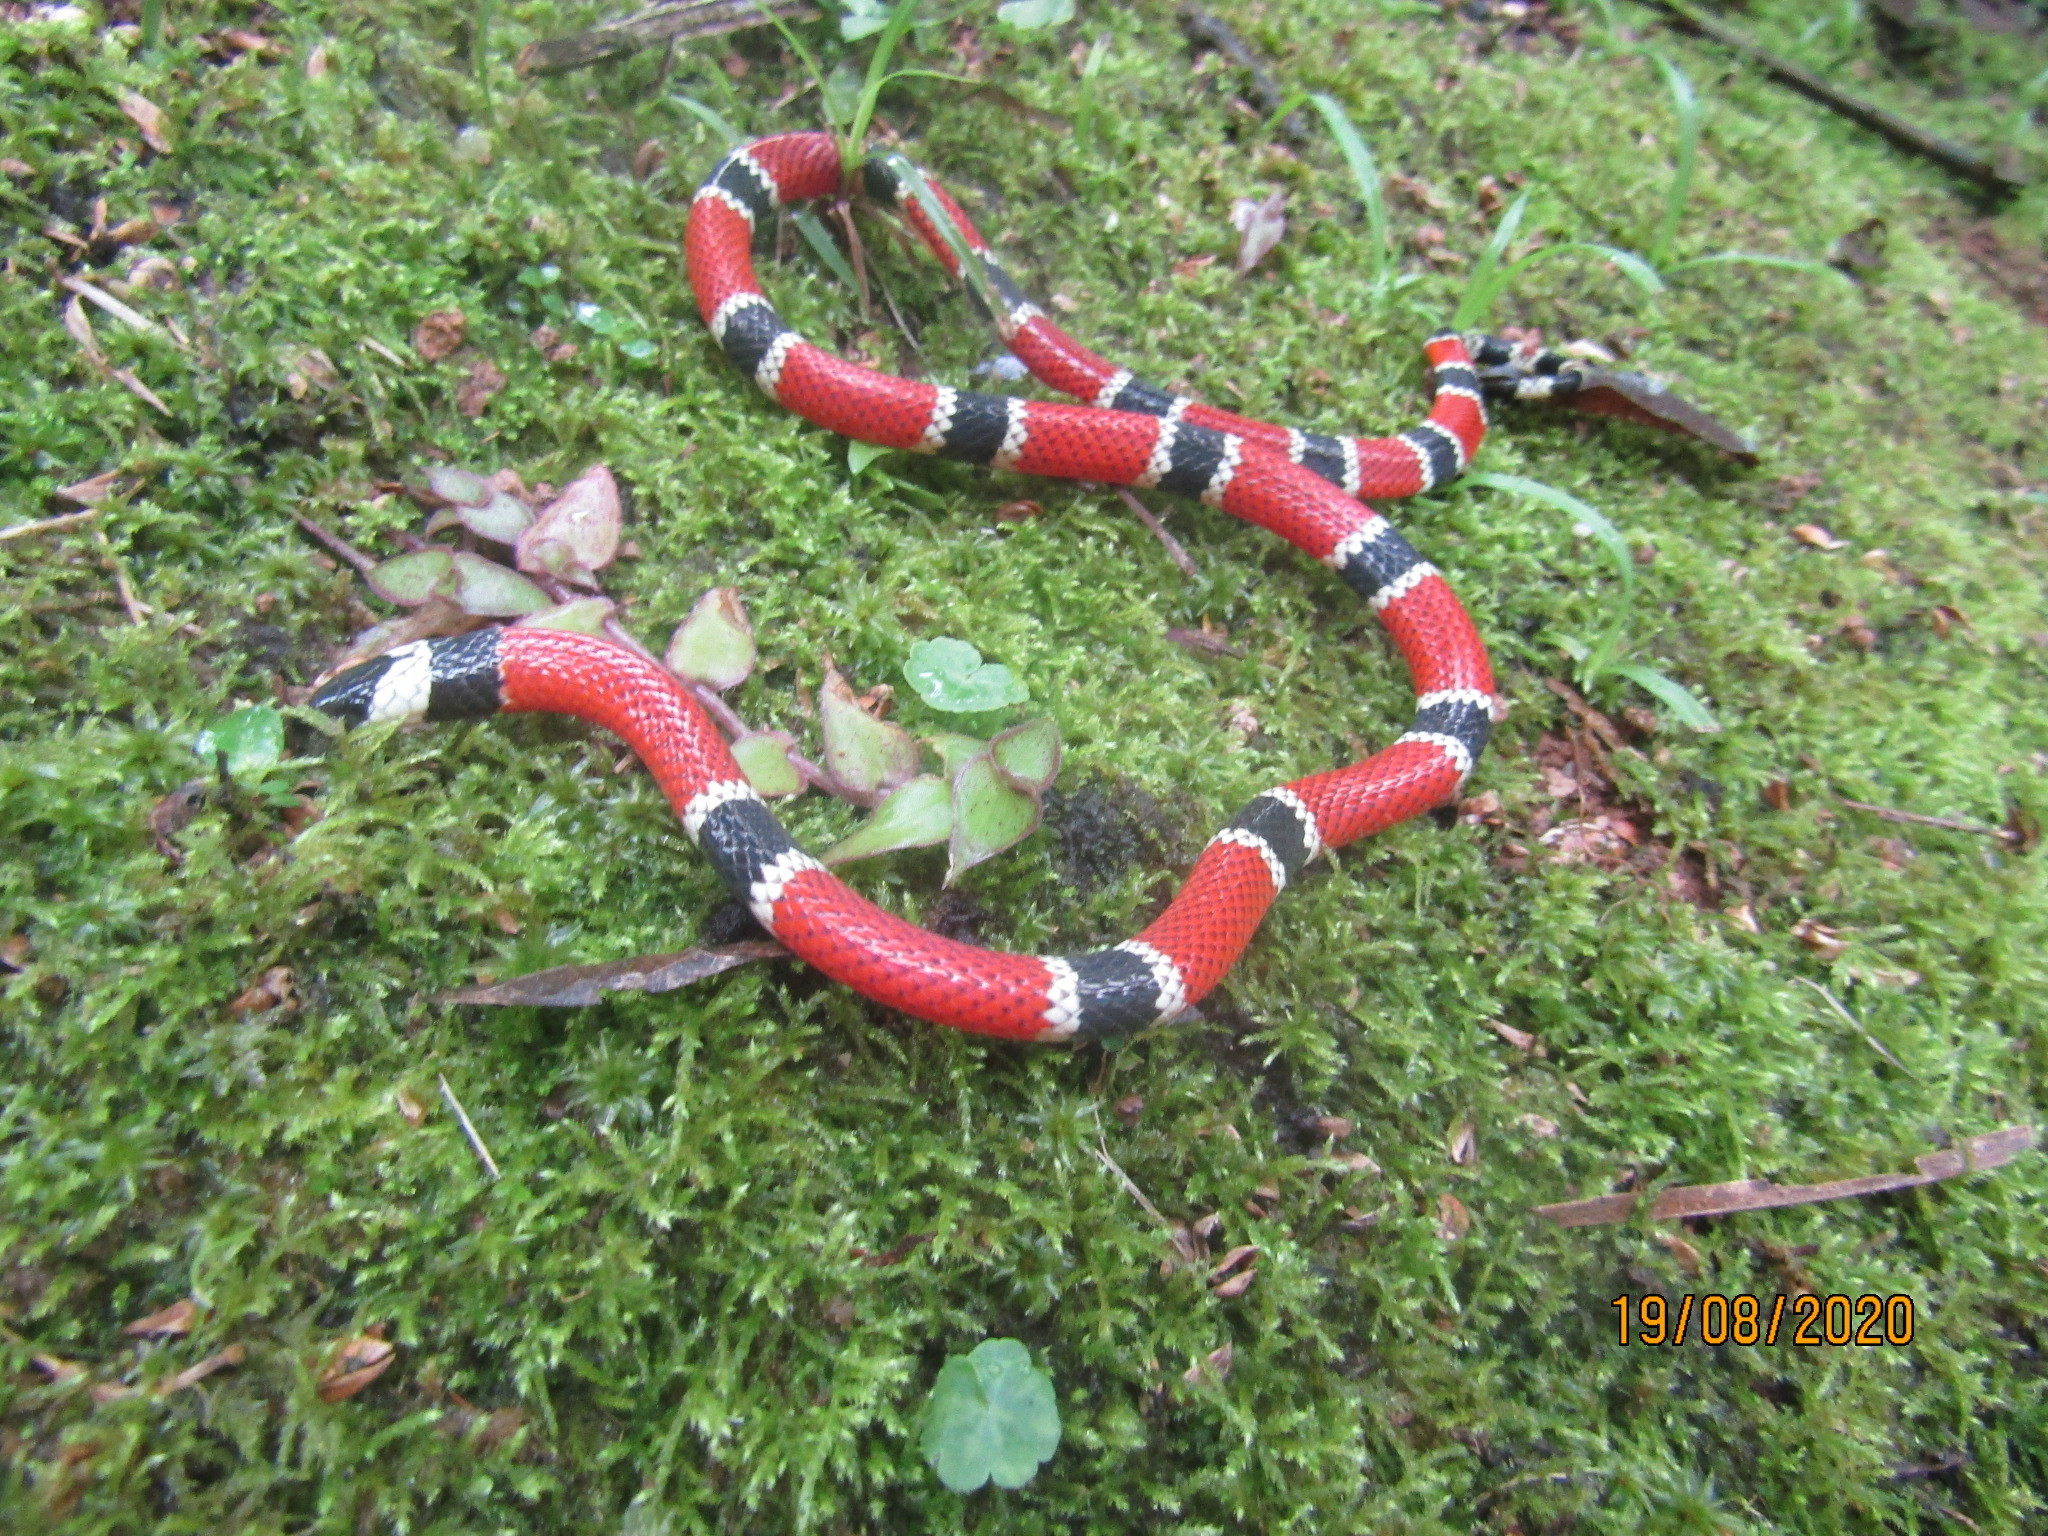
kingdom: Animalia
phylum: Chordata
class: Squamata
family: Elapidae
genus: Micrurus
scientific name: Micrurus corallinus
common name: Painted coral snake
